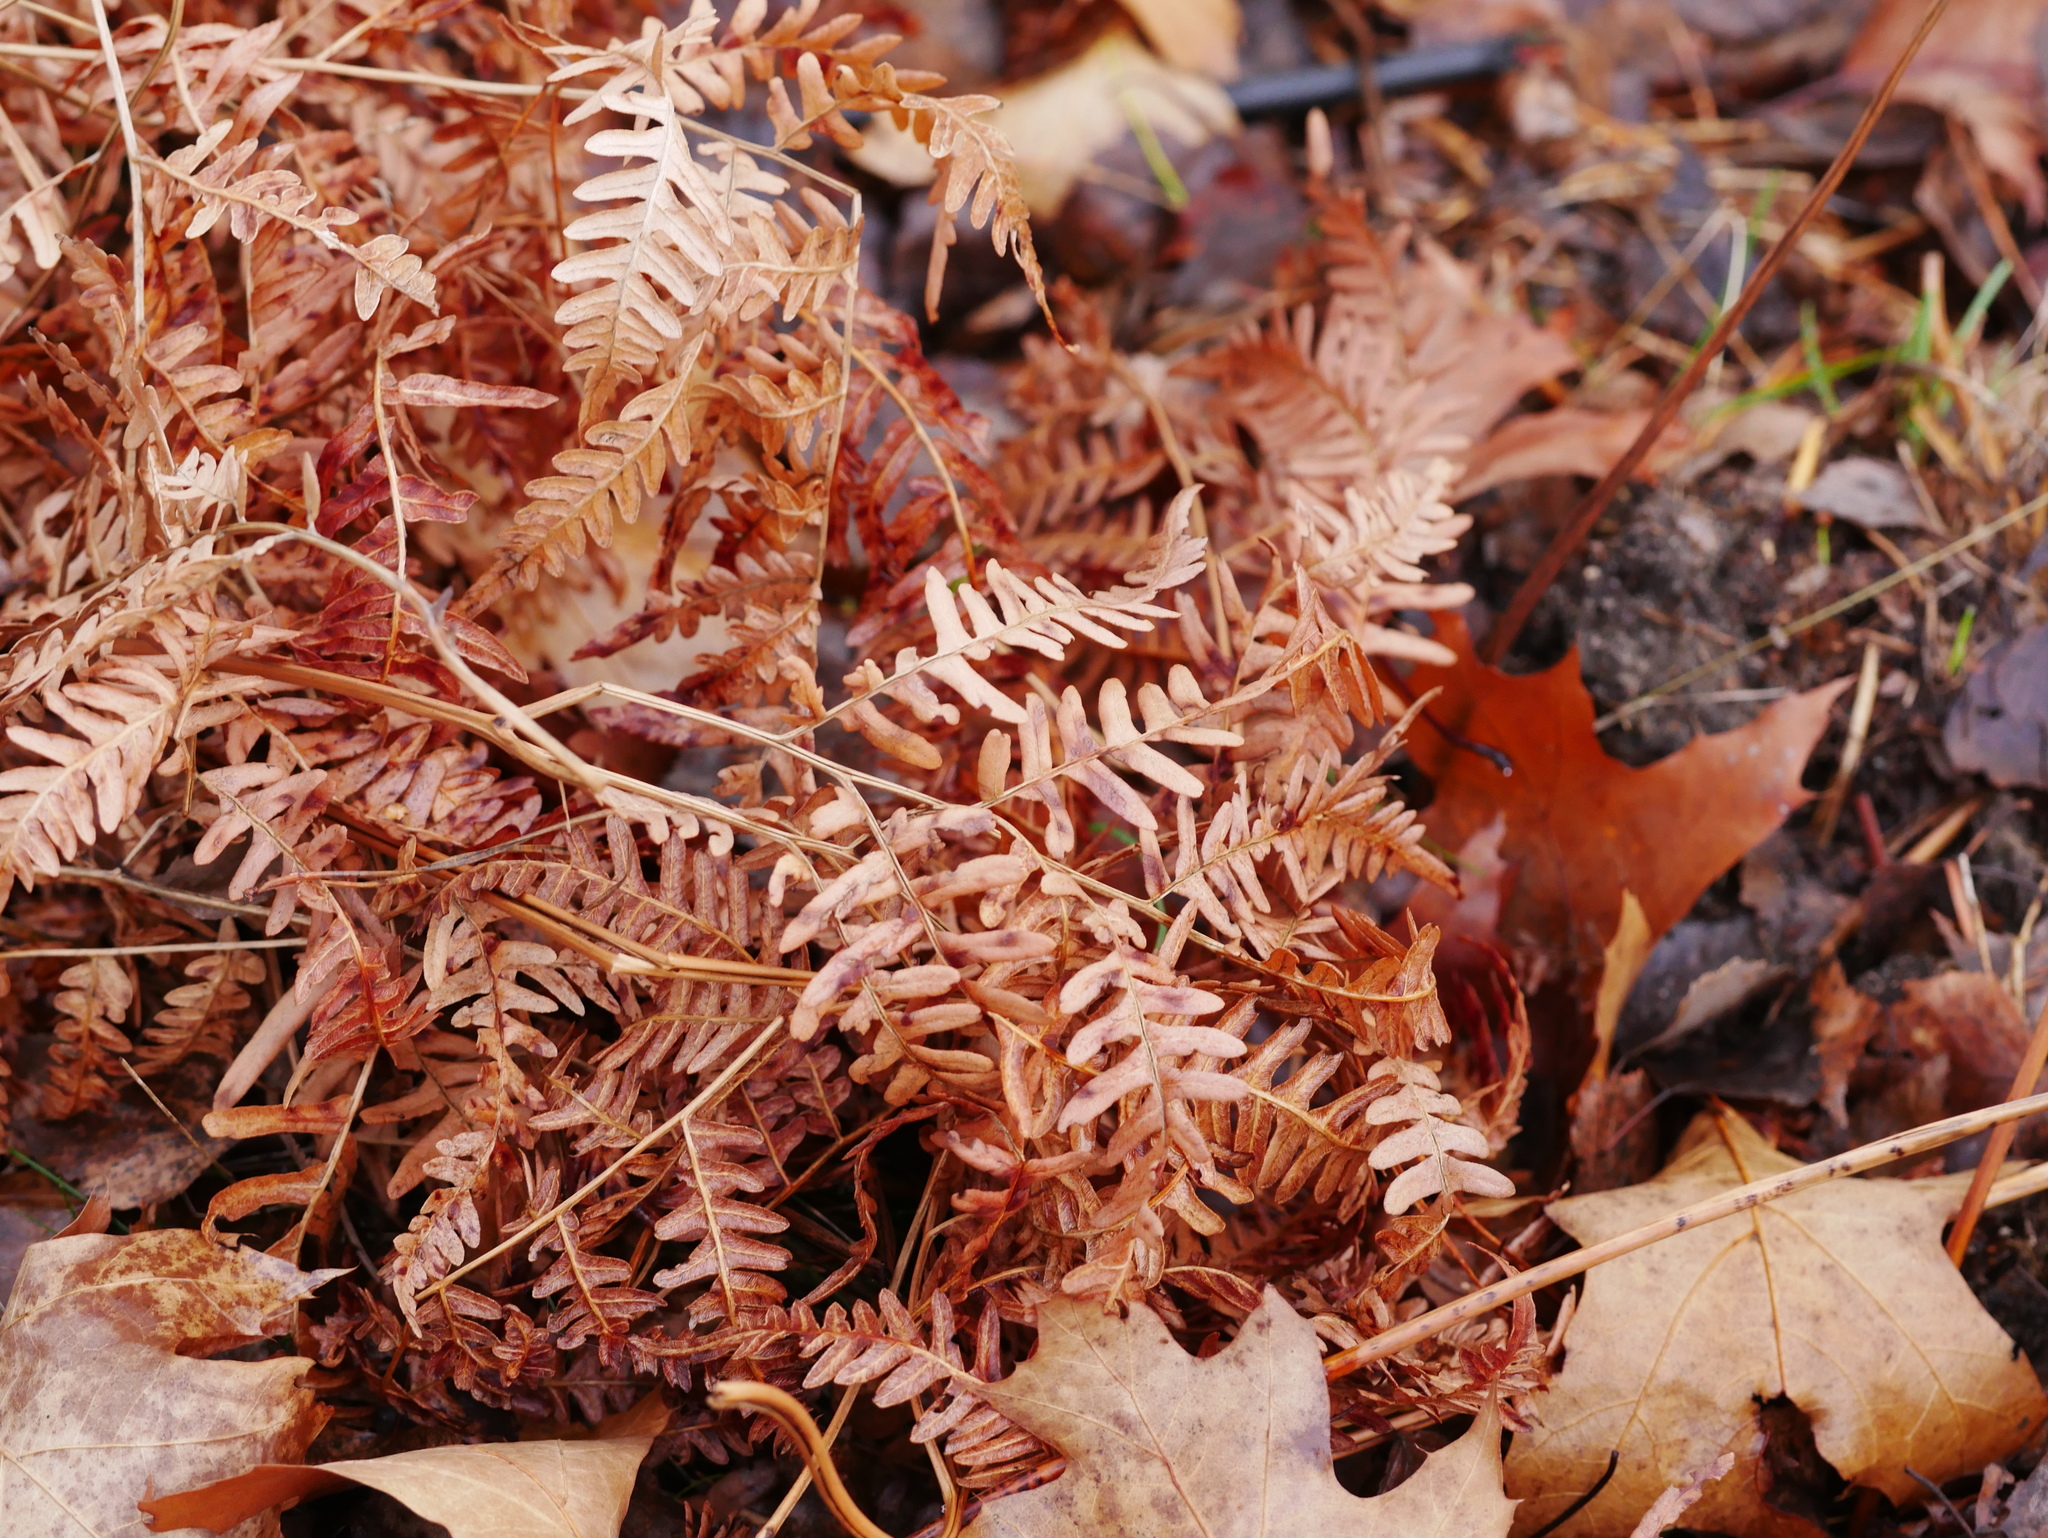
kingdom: Plantae
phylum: Tracheophyta
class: Polypodiopsida
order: Polypodiales
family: Dennstaedtiaceae
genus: Pteridium
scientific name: Pteridium aquilinum
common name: Bracken
